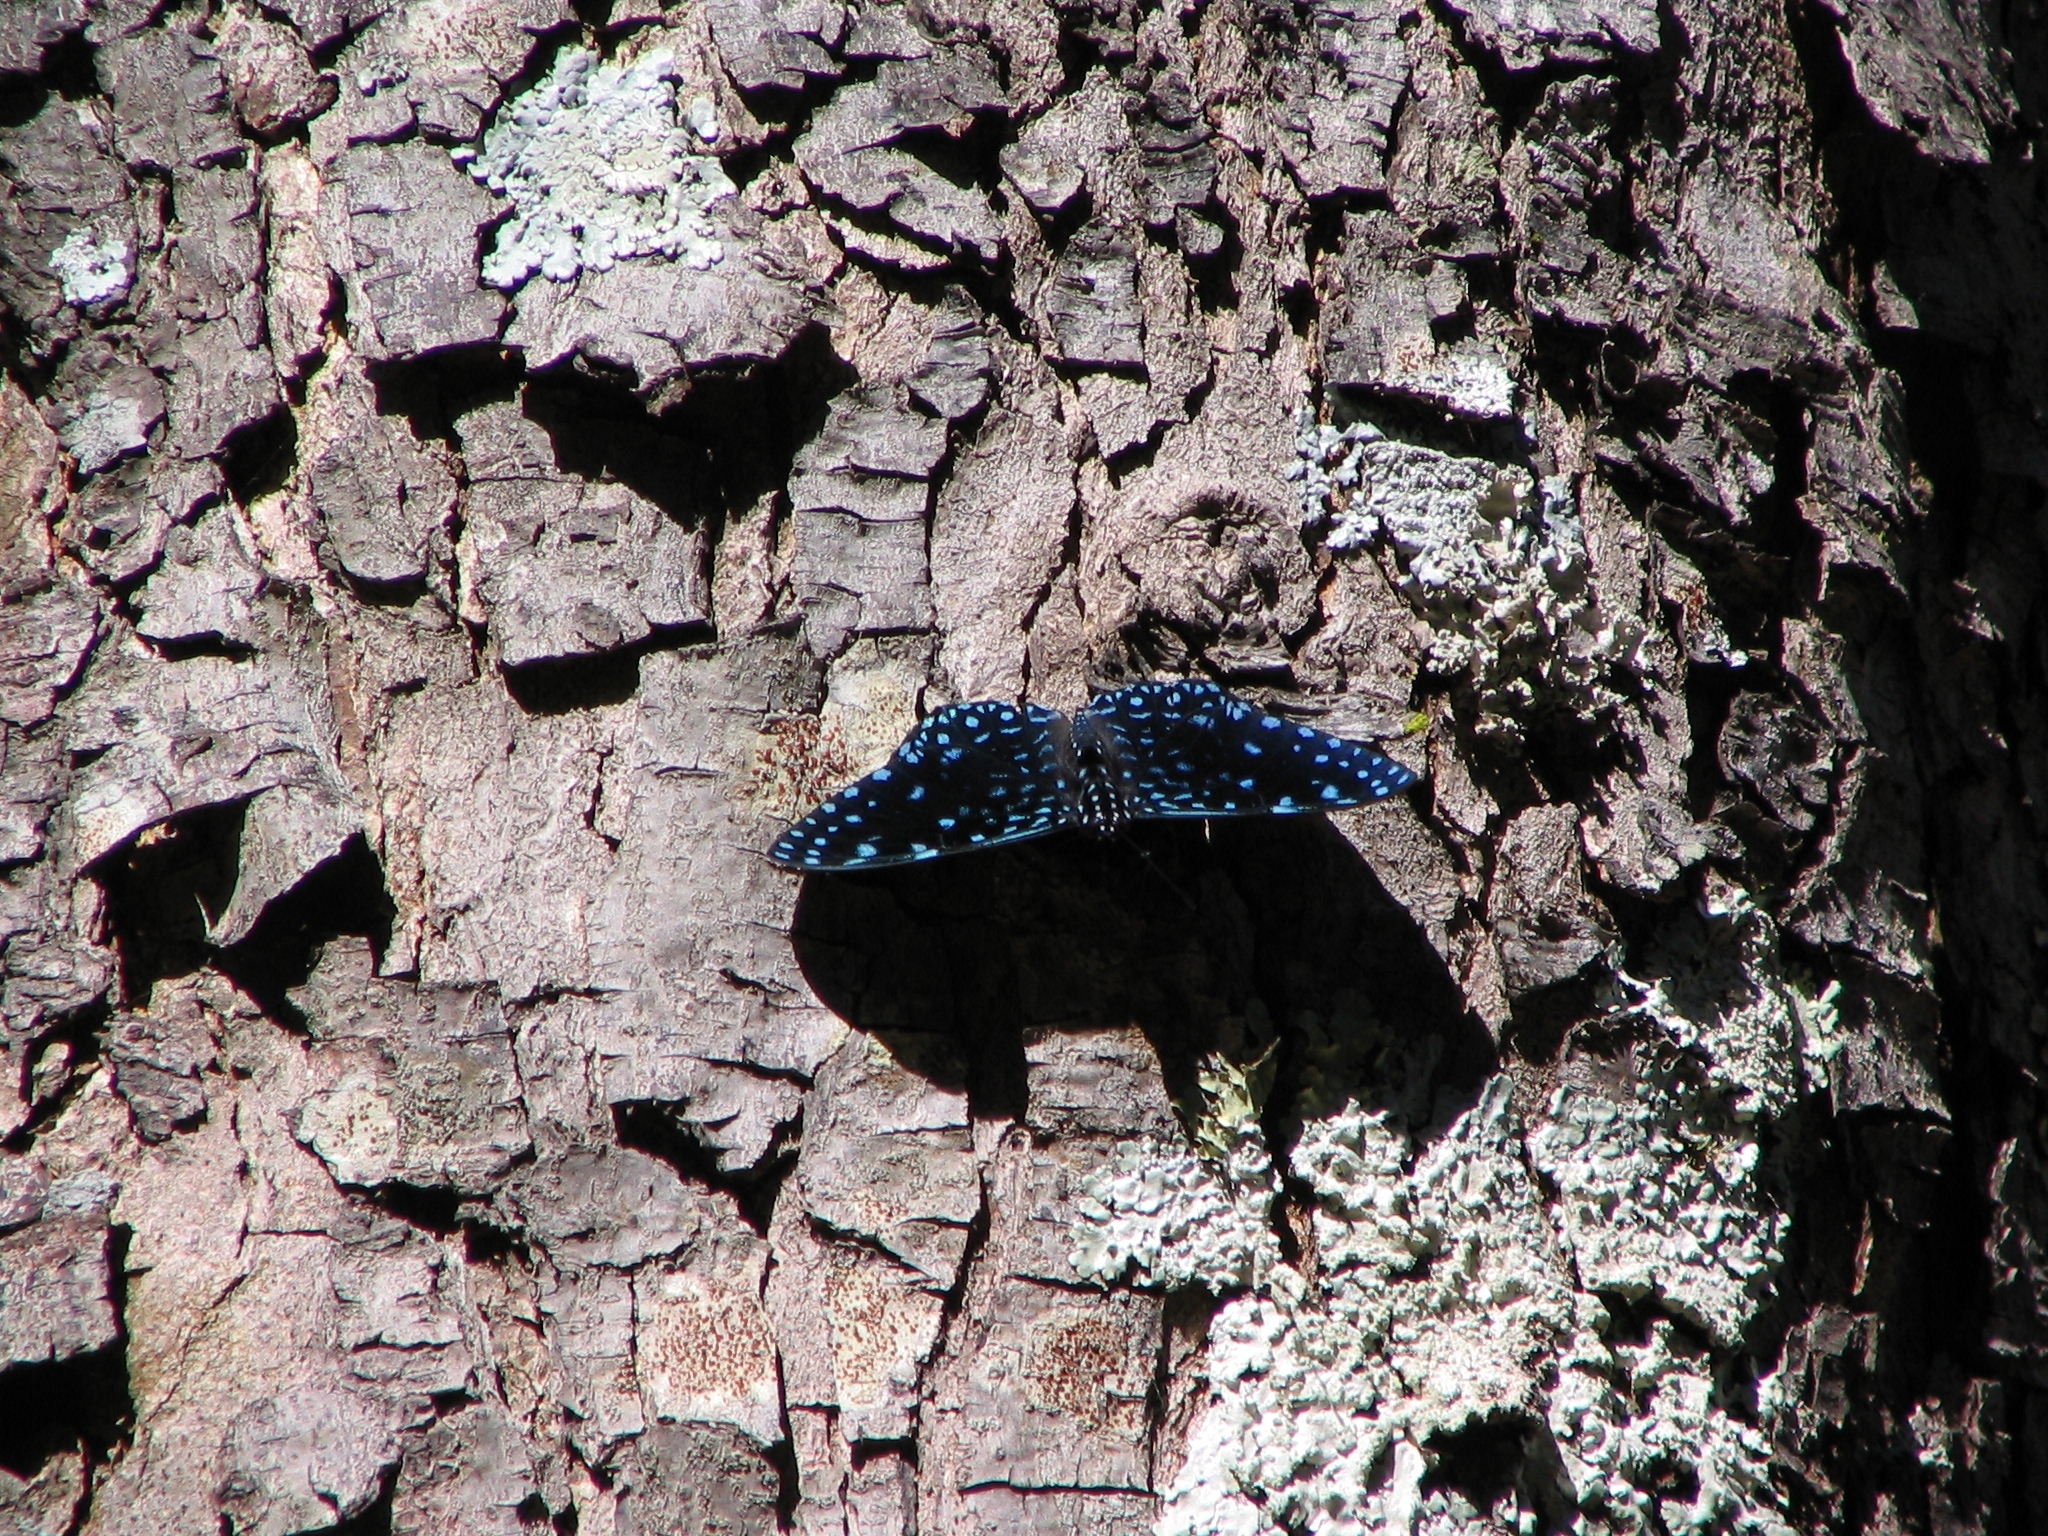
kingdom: Animalia
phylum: Arthropoda
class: Insecta
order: Lepidoptera
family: Nymphalidae
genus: Hamadryas
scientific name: Hamadryas laodamia
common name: Starry night cracker
